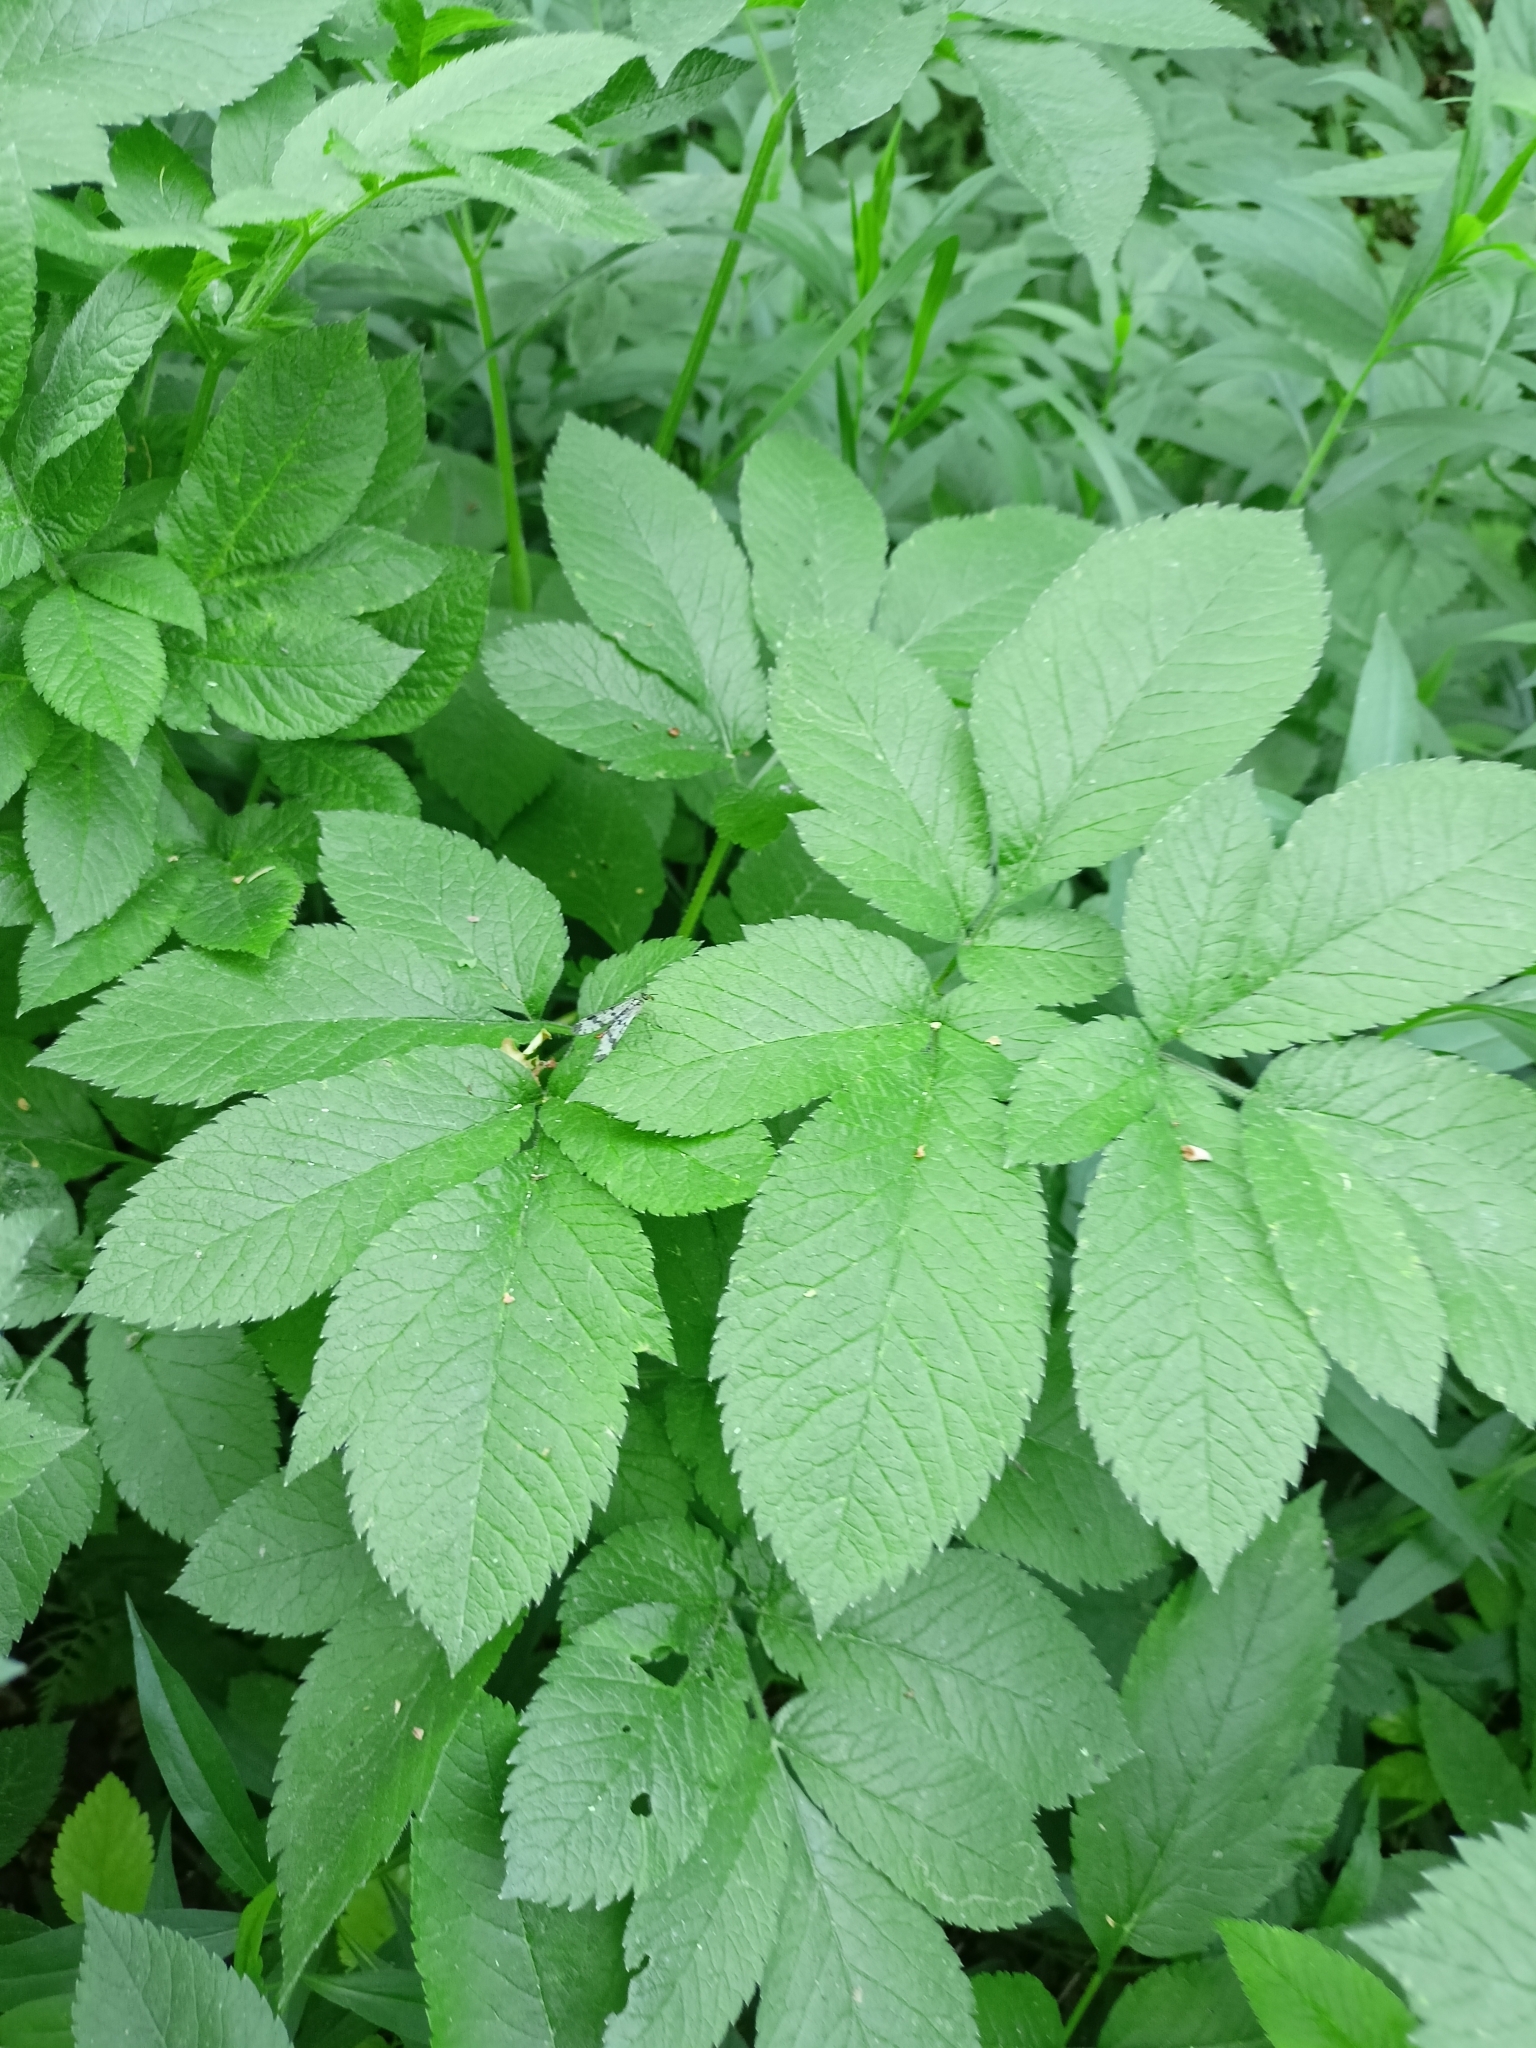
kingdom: Plantae
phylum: Tracheophyta
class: Magnoliopsida
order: Apiales
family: Apiaceae
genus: Chaerophyllum
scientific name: Chaerophyllum aromaticum
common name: Broadleaf chervil
